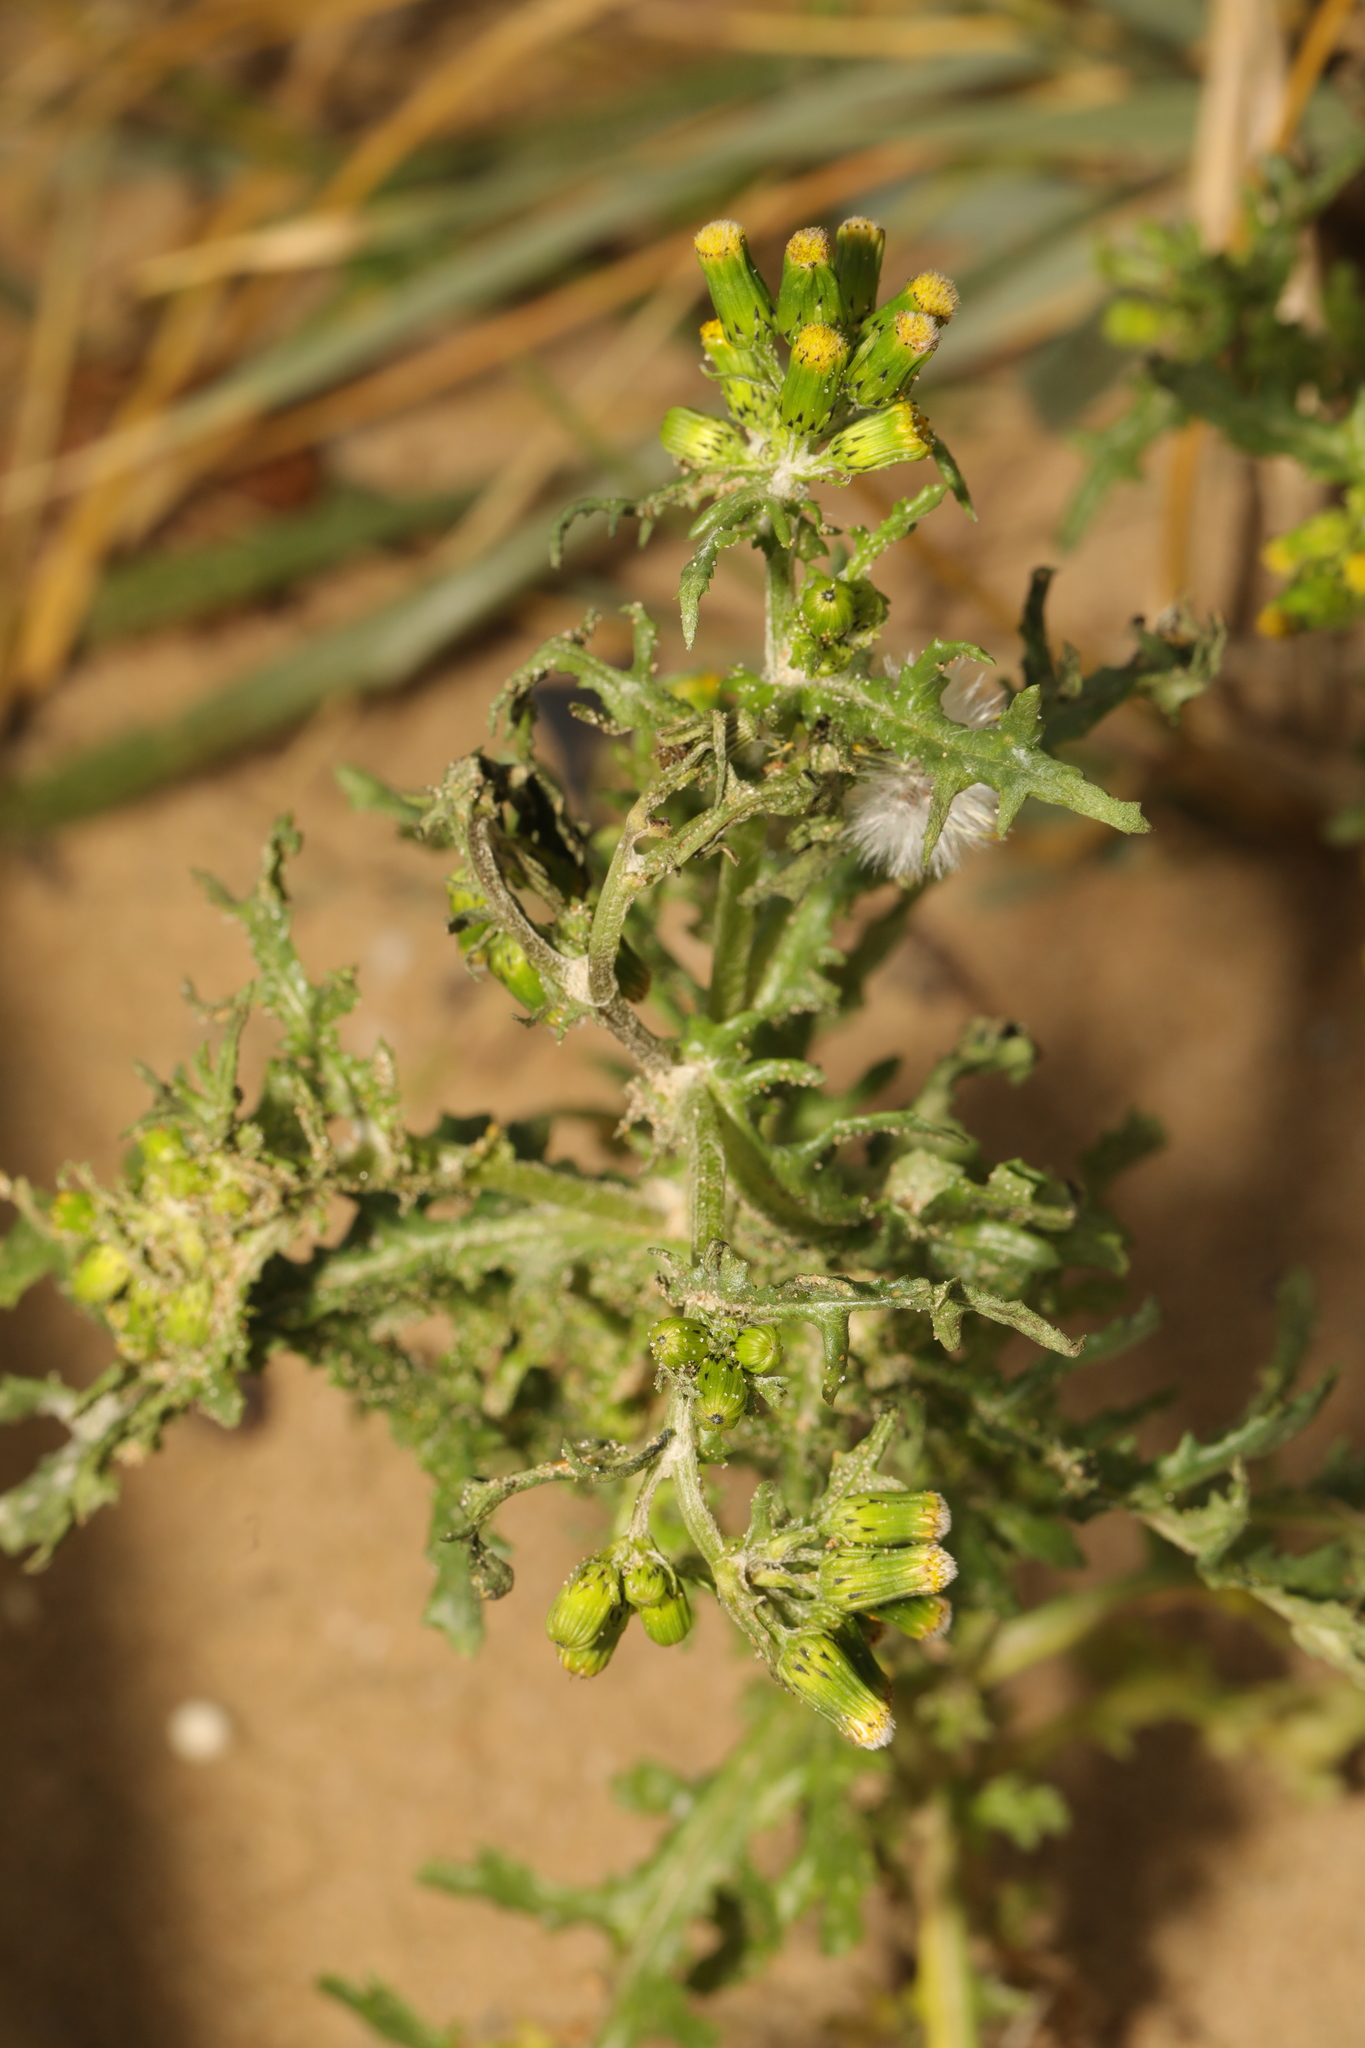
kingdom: Plantae
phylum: Tracheophyta
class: Magnoliopsida
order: Asterales
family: Asteraceae
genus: Senecio
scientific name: Senecio vulgaris
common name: Old-man-in-the-spring
